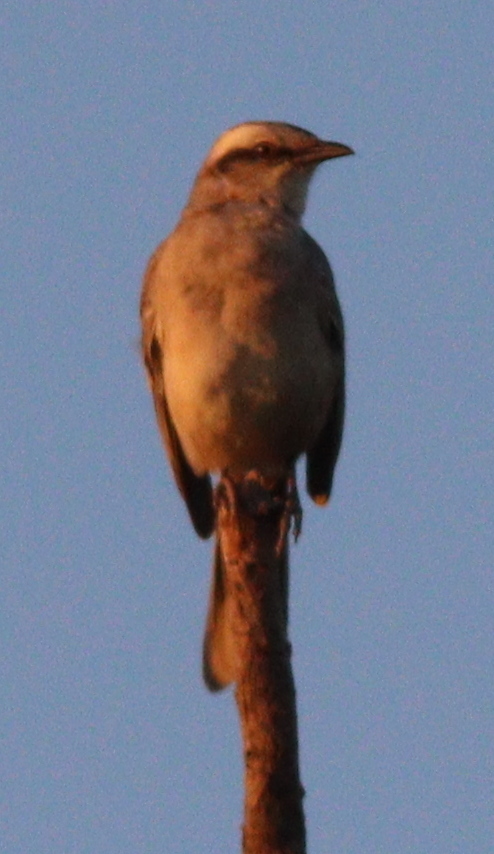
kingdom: Animalia
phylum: Chordata
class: Aves
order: Passeriformes
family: Mimidae
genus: Mimus
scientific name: Mimus saturninus
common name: Chalk-browed mockingbird
